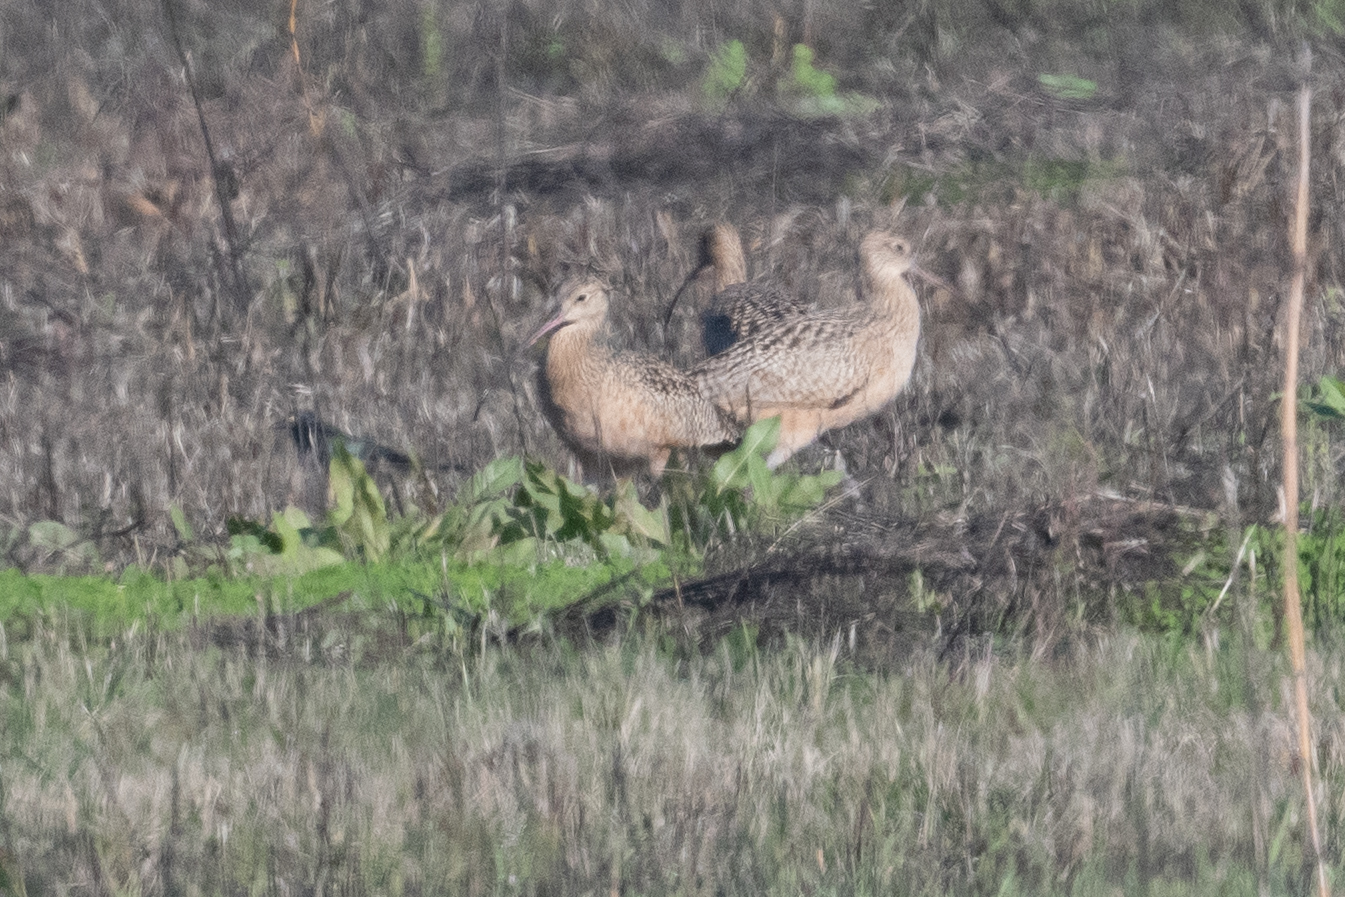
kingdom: Animalia
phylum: Chordata
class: Aves
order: Charadriiformes
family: Scolopacidae
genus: Numenius
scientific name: Numenius americanus
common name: Long-billed curlew
